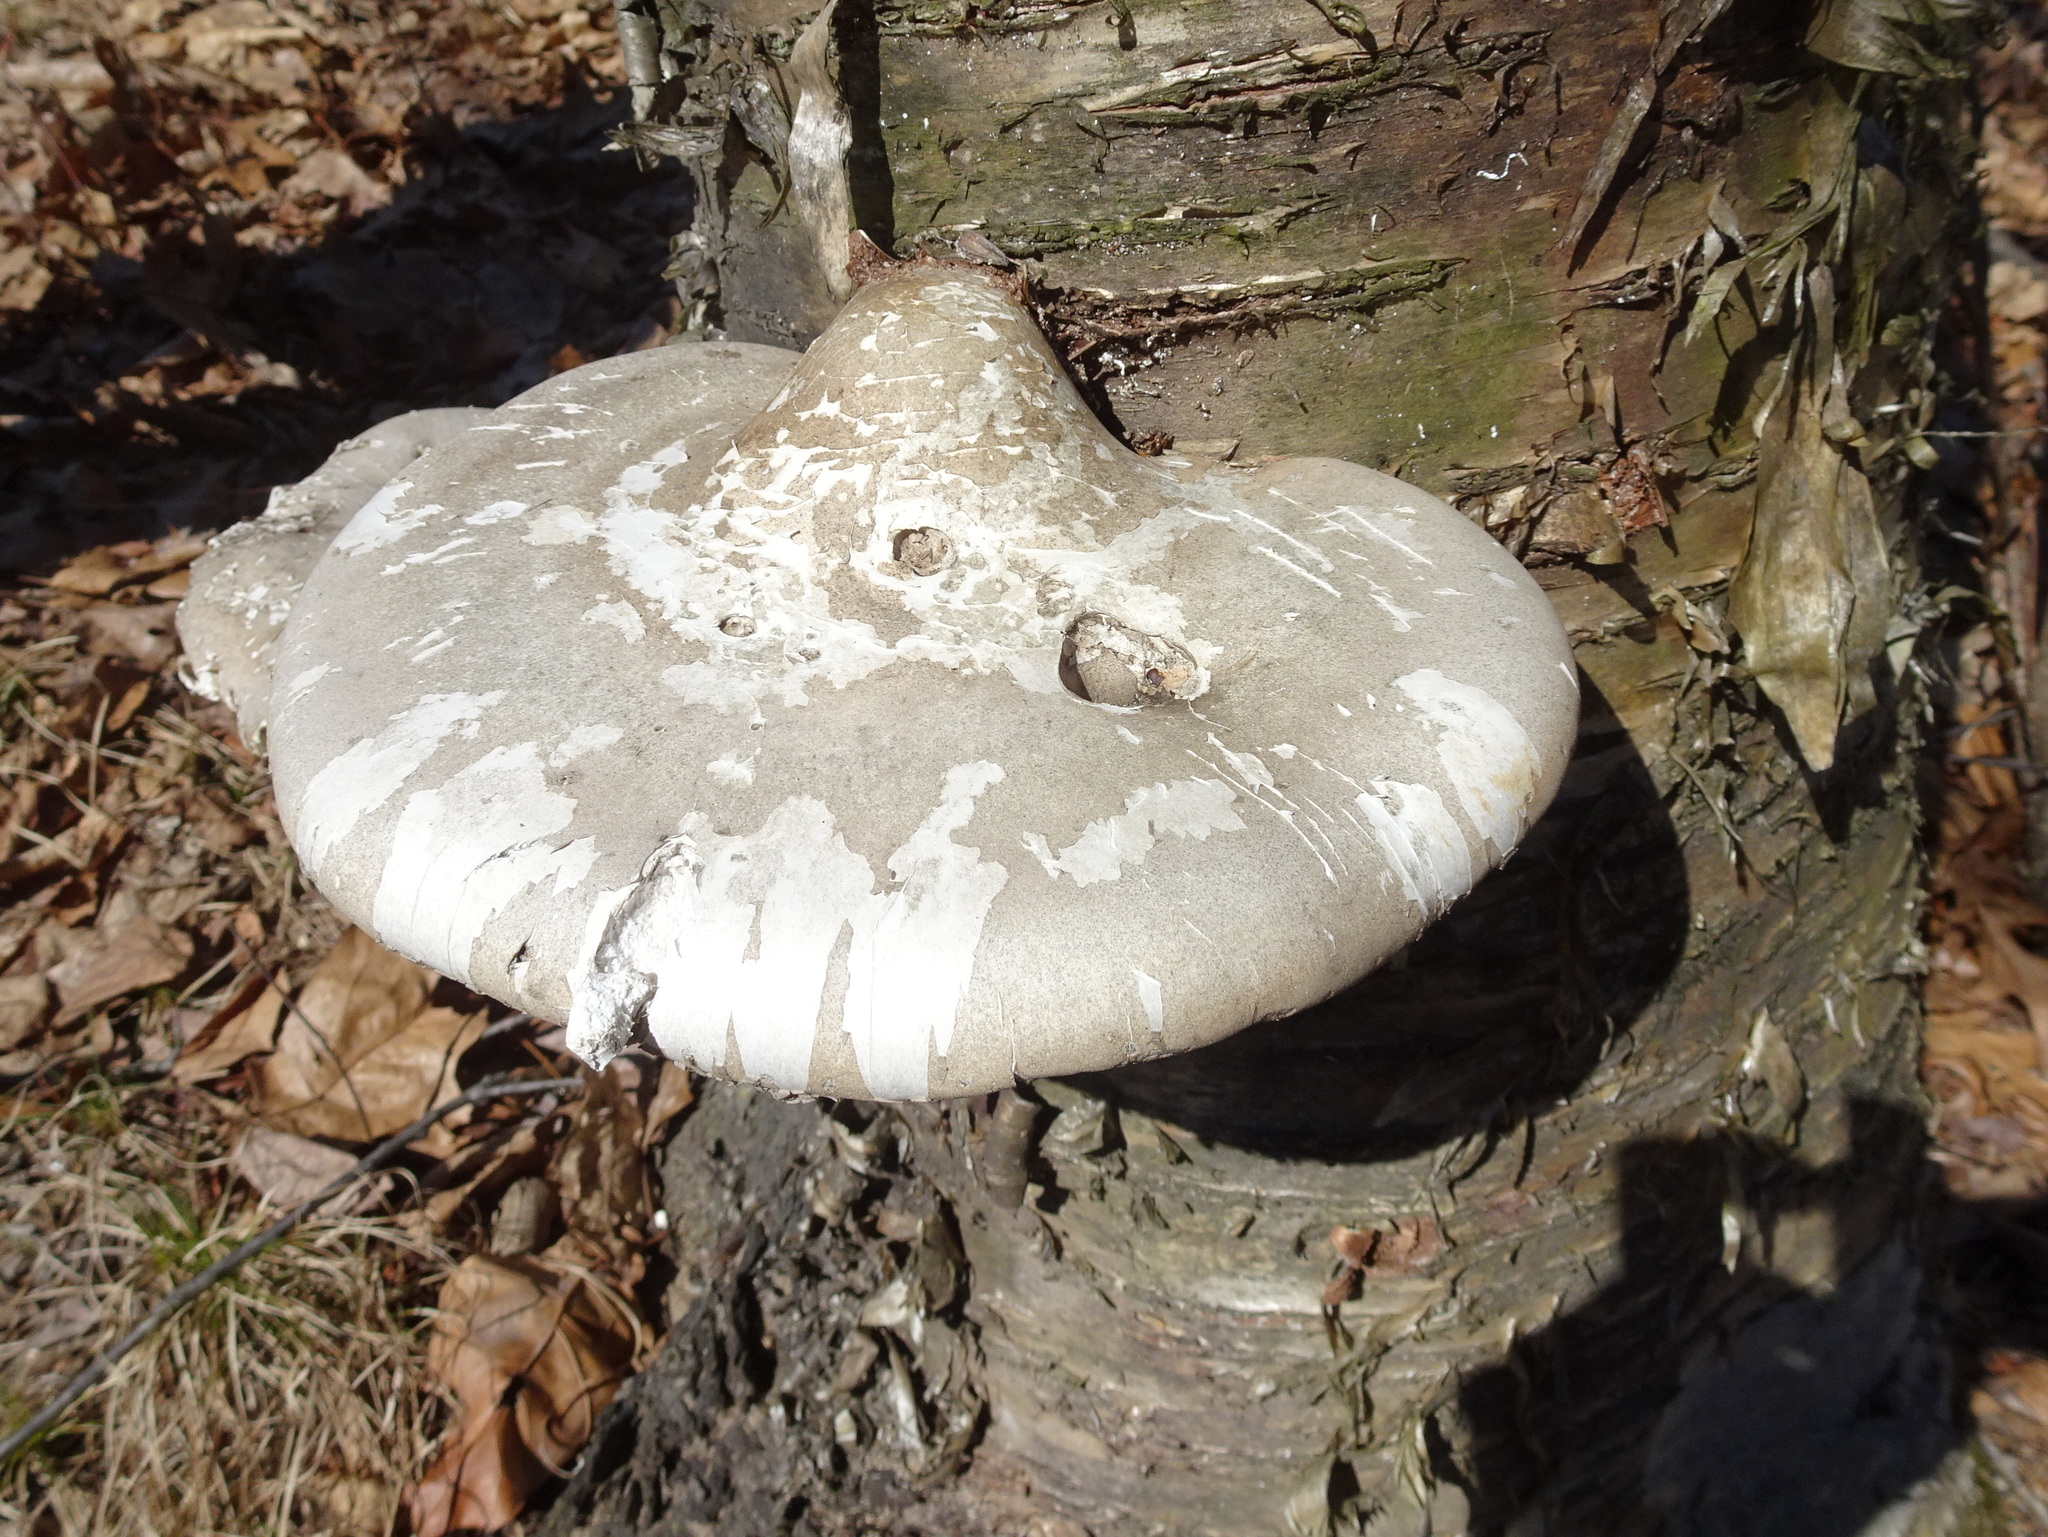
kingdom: Fungi
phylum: Basidiomycota
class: Agaricomycetes
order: Polyporales
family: Fomitopsidaceae
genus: Fomitopsis
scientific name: Fomitopsis betulina
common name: Birch polypore
